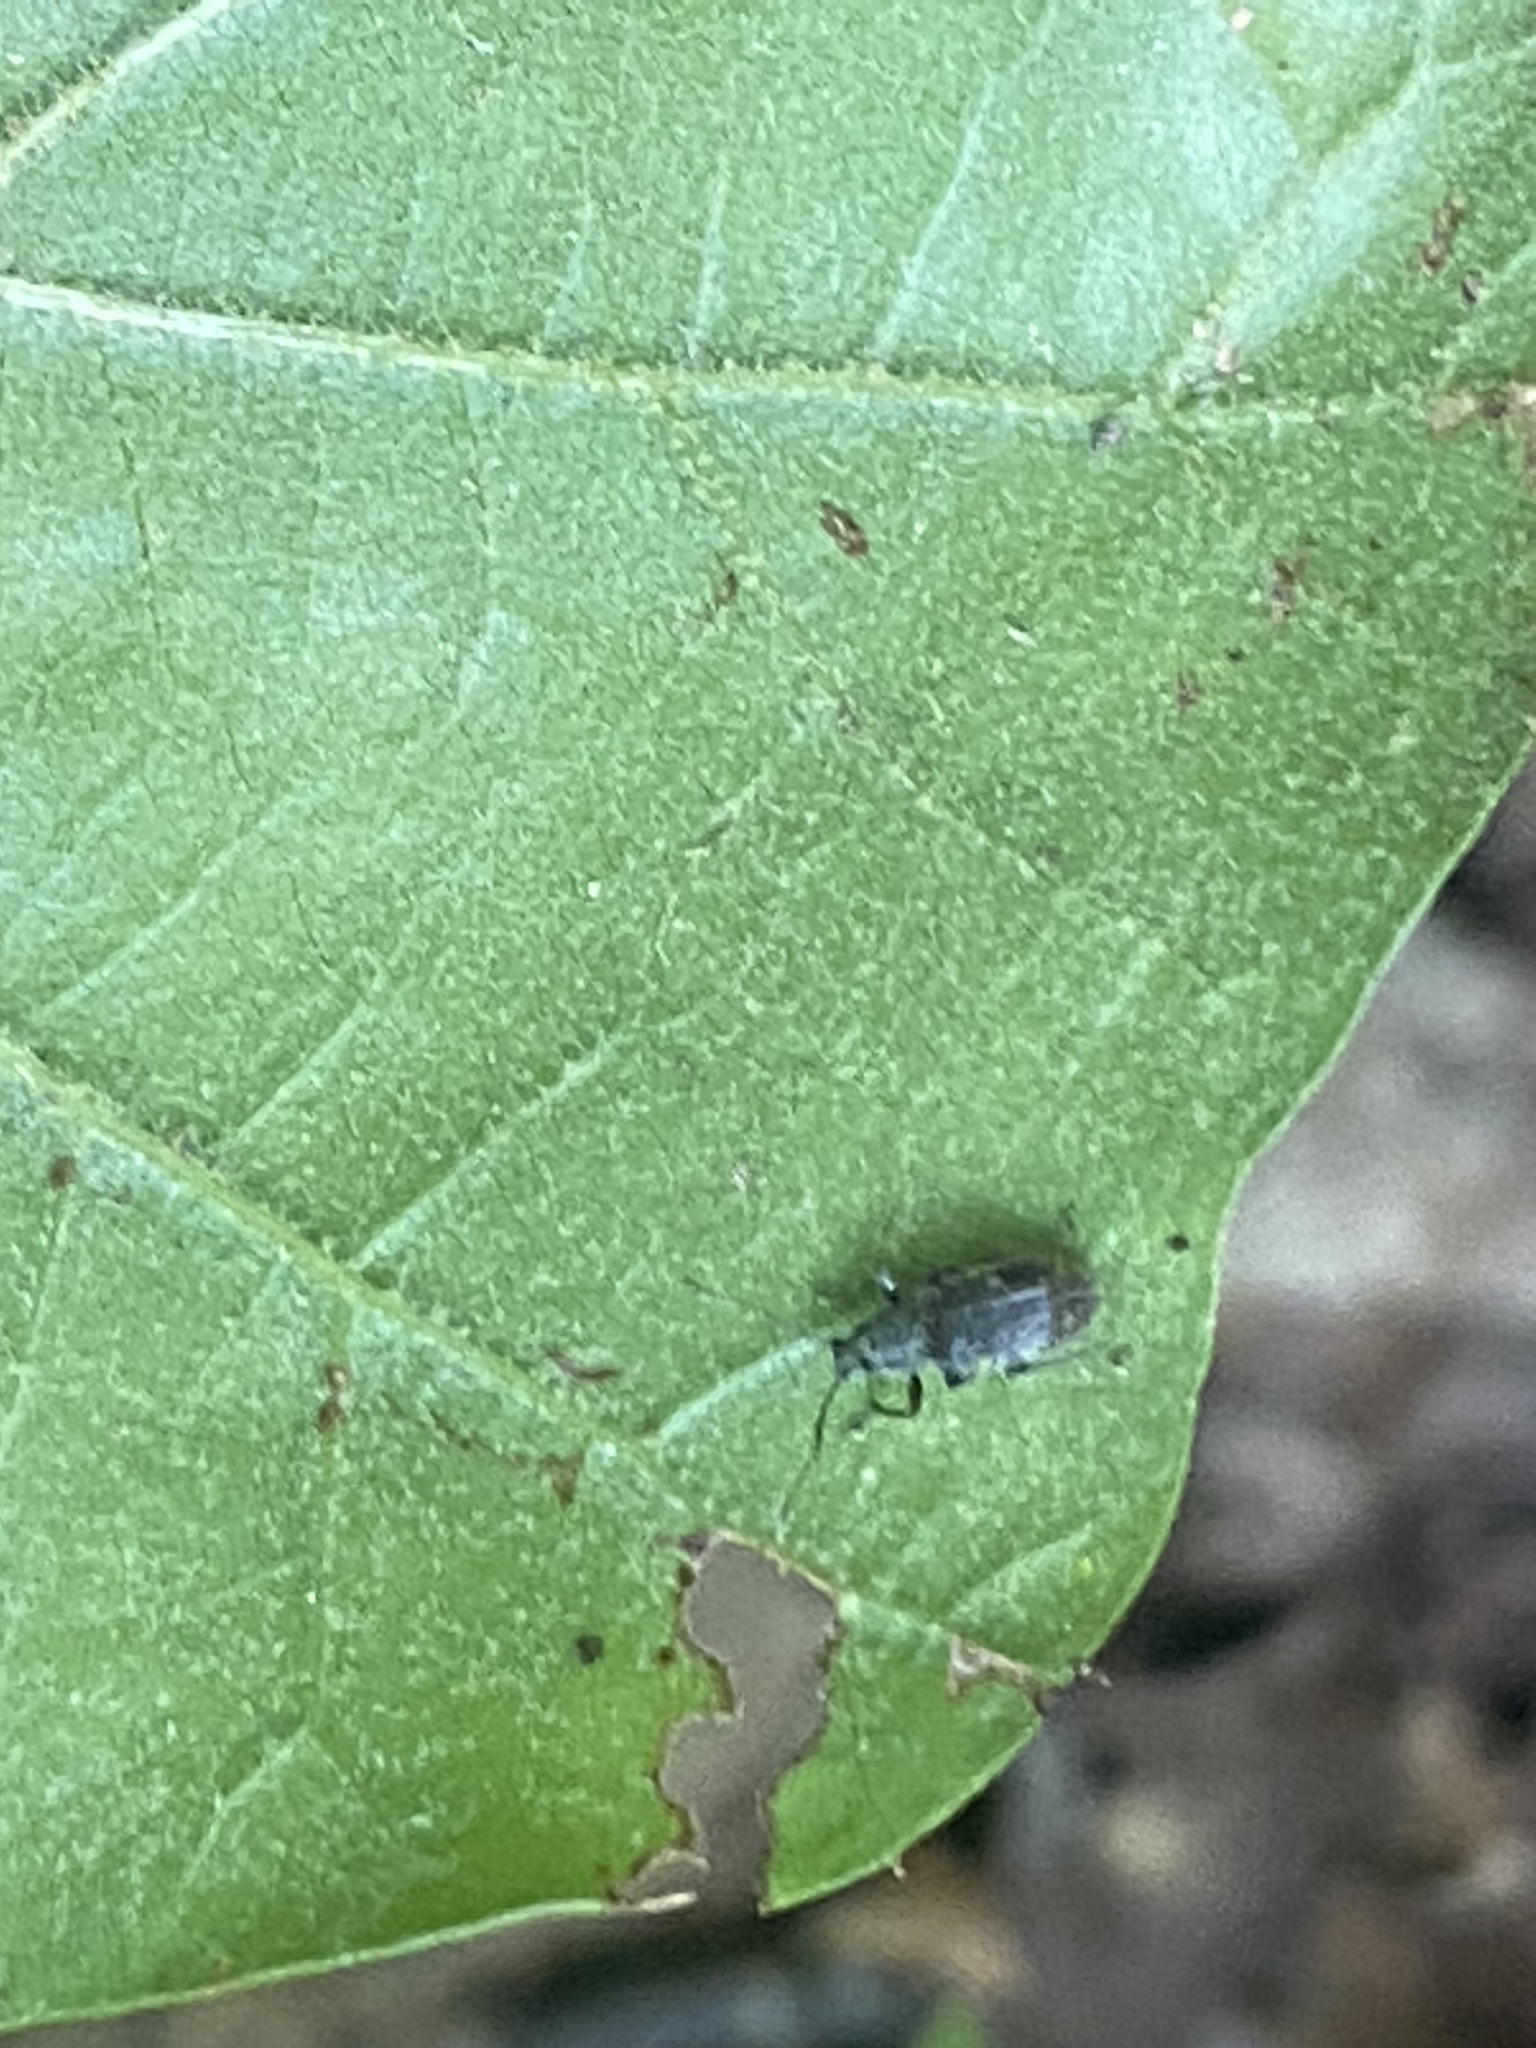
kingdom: Animalia
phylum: Arthropoda
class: Insecta
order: Coleoptera
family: Curculionidae
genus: Cyrtepistomus
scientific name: Cyrtepistomus castaneus
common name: Weevil
